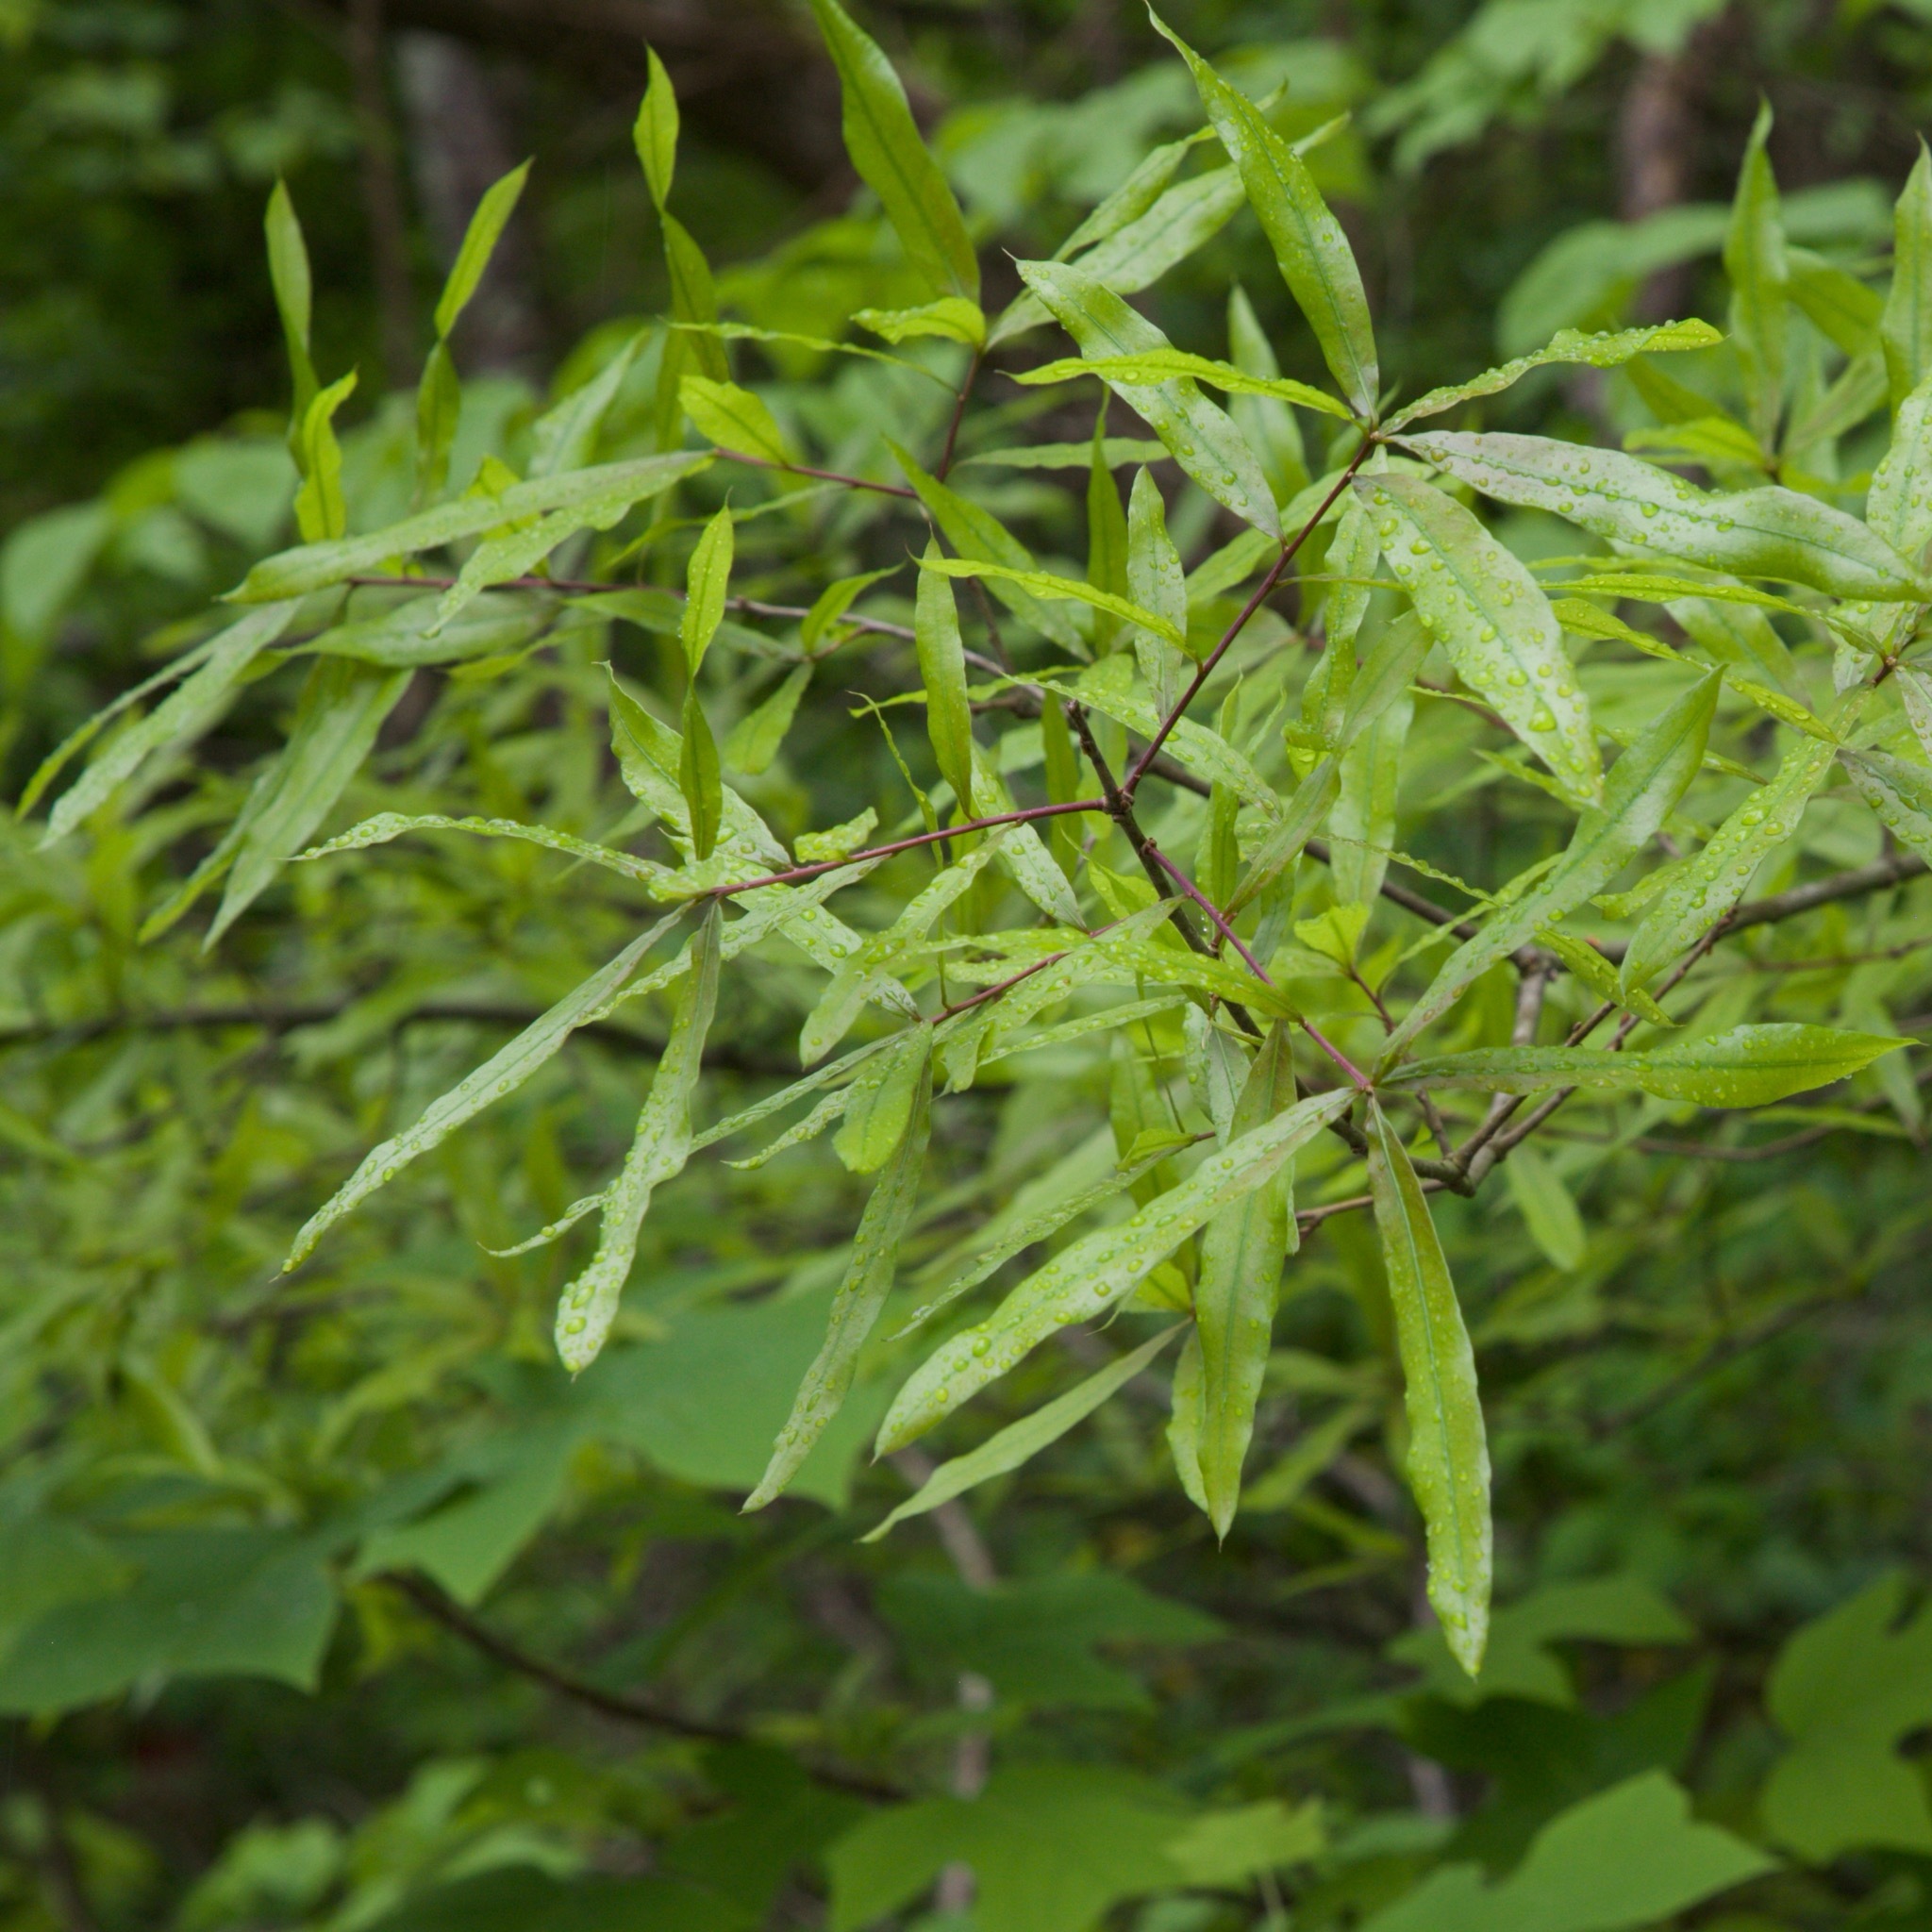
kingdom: Plantae
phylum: Tracheophyta
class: Magnoliopsida
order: Fagales
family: Fagaceae
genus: Quercus
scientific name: Quercus phellos
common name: Willow oak
